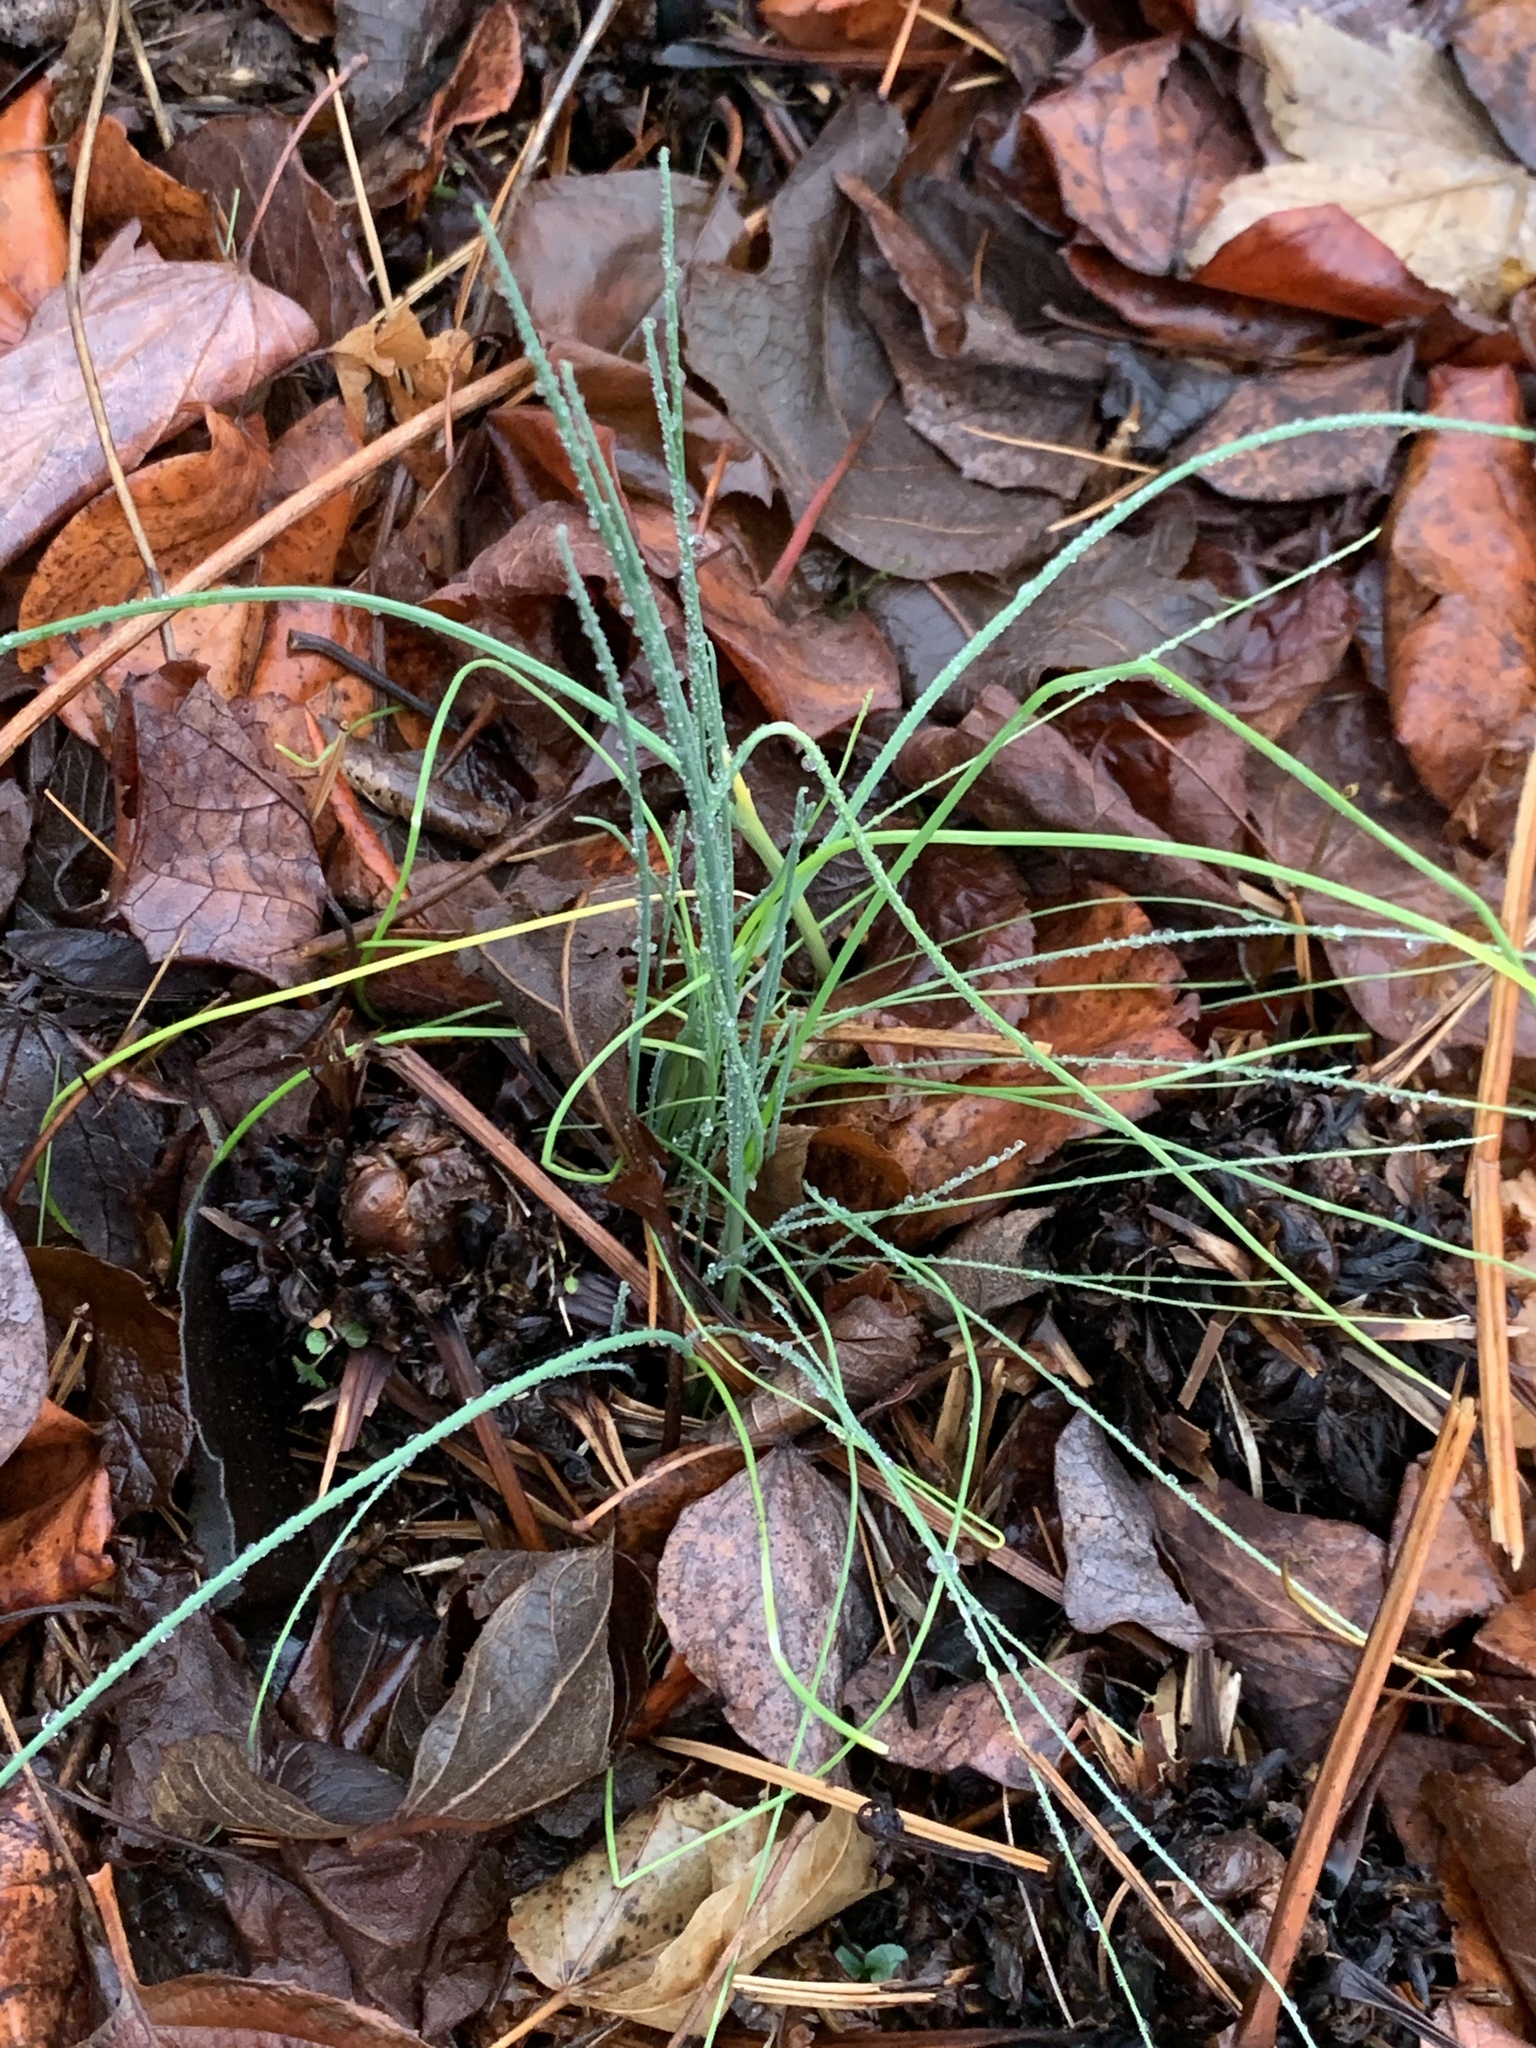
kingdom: Plantae
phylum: Tracheophyta
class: Liliopsida
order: Asparagales
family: Amaryllidaceae
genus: Allium
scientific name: Allium vineale
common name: Crow garlic
